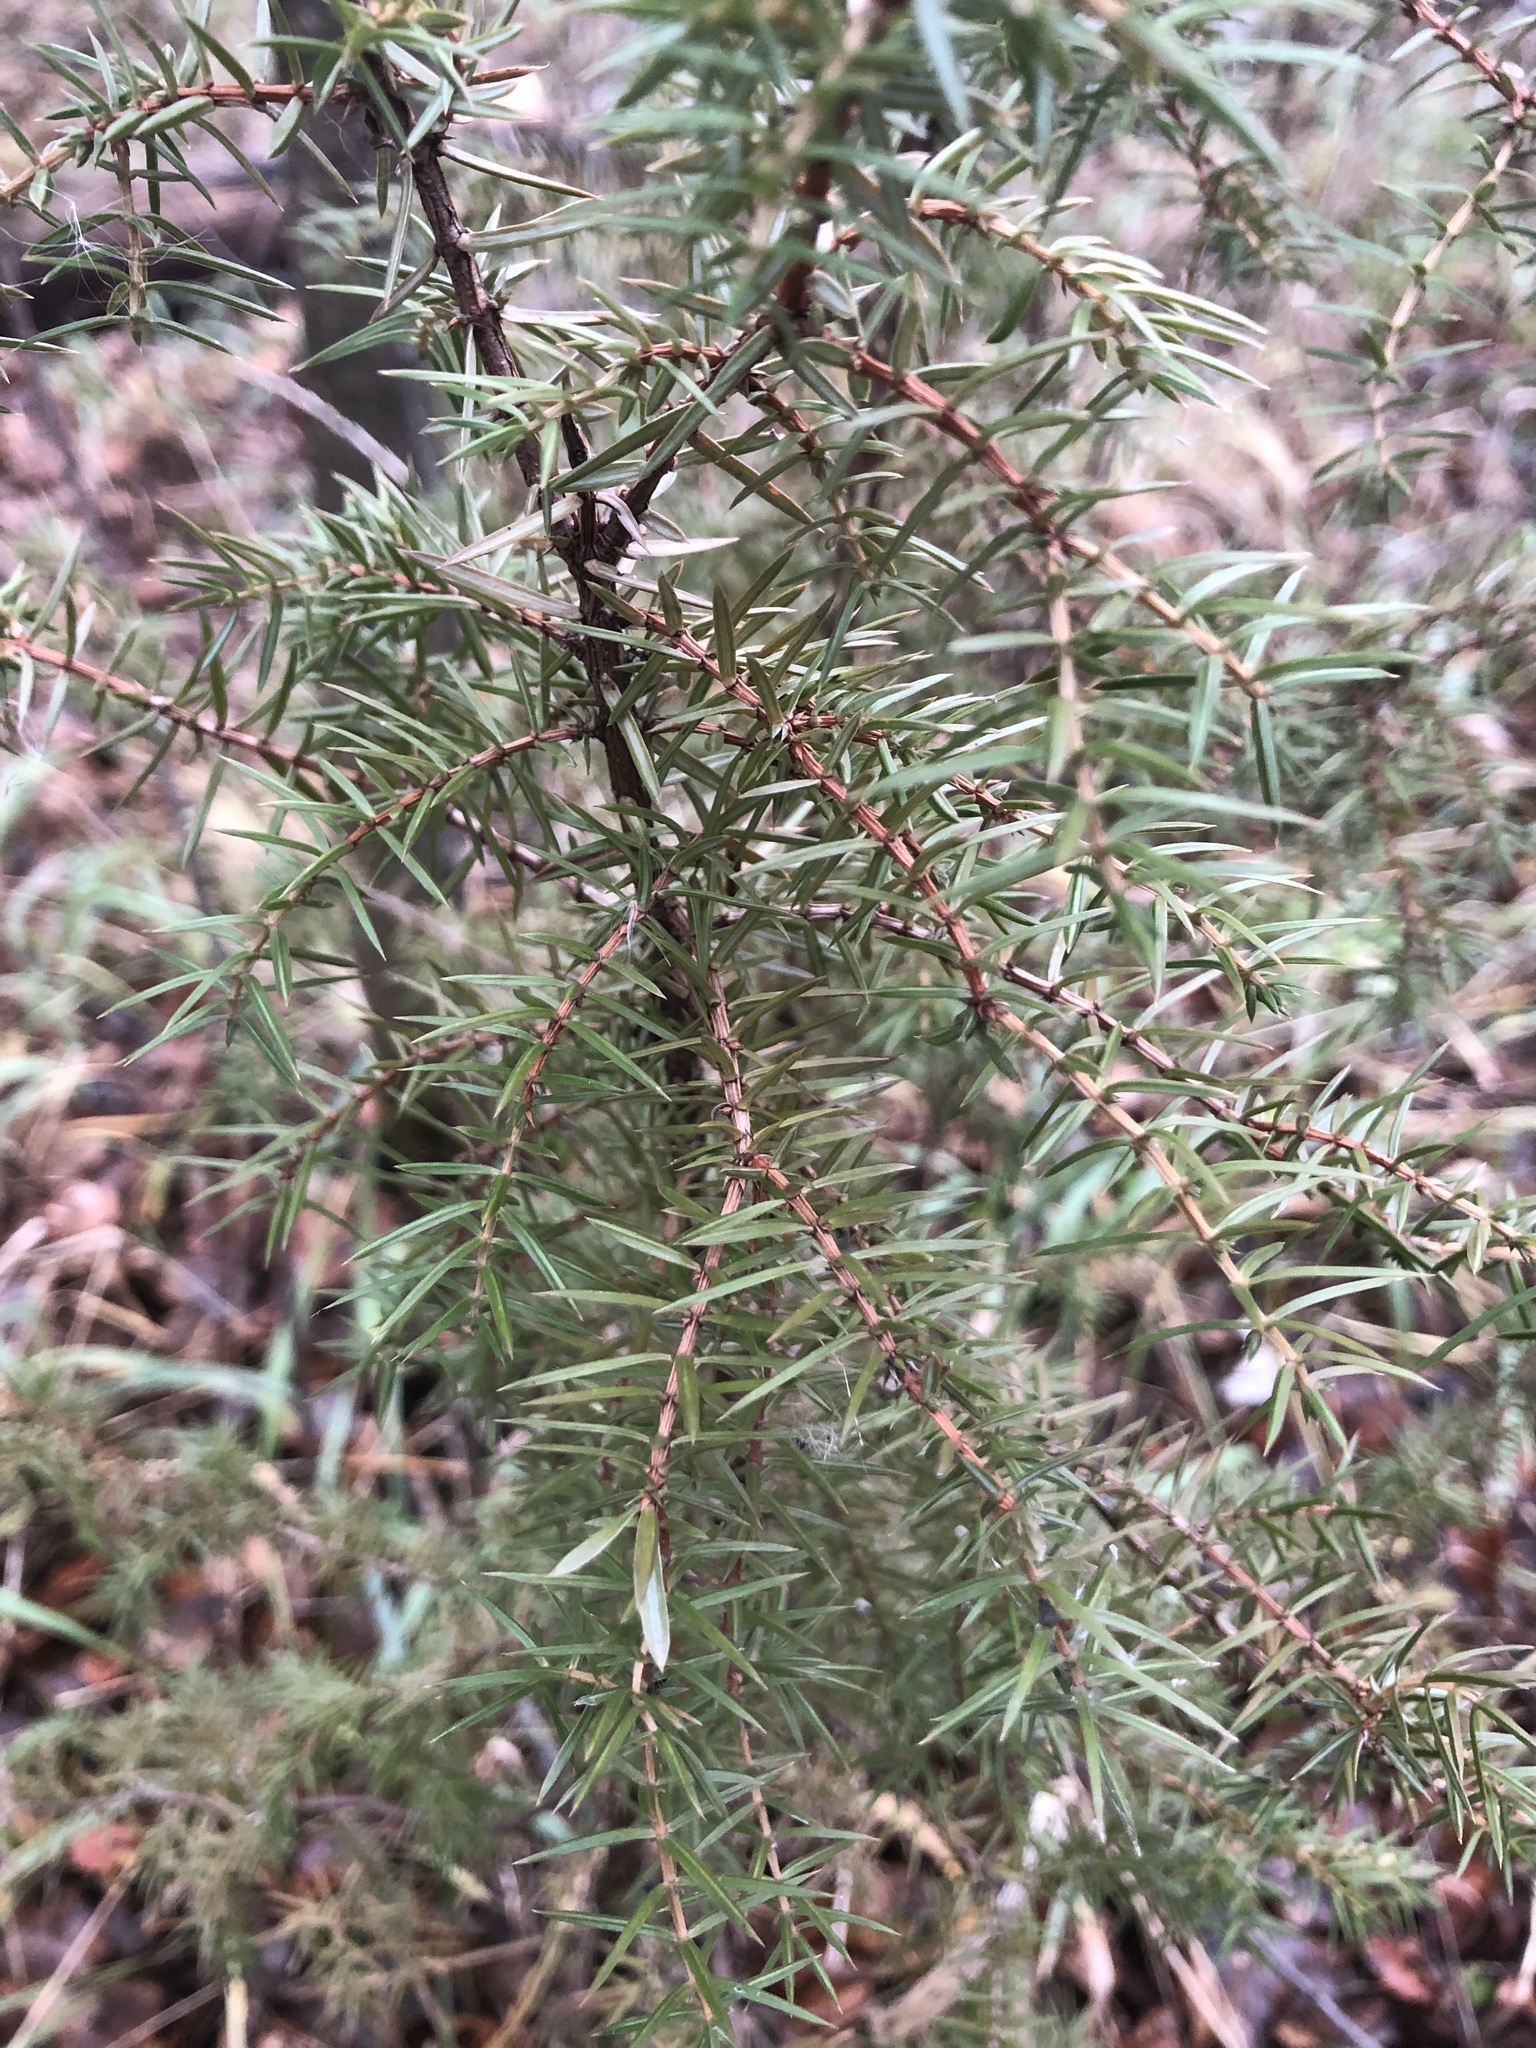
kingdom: Plantae
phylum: Tracheophyta
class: Pinopsida
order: Pinales
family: Cupressaceae
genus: Juniperus
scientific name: Juniperus communis
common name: Common juniper
